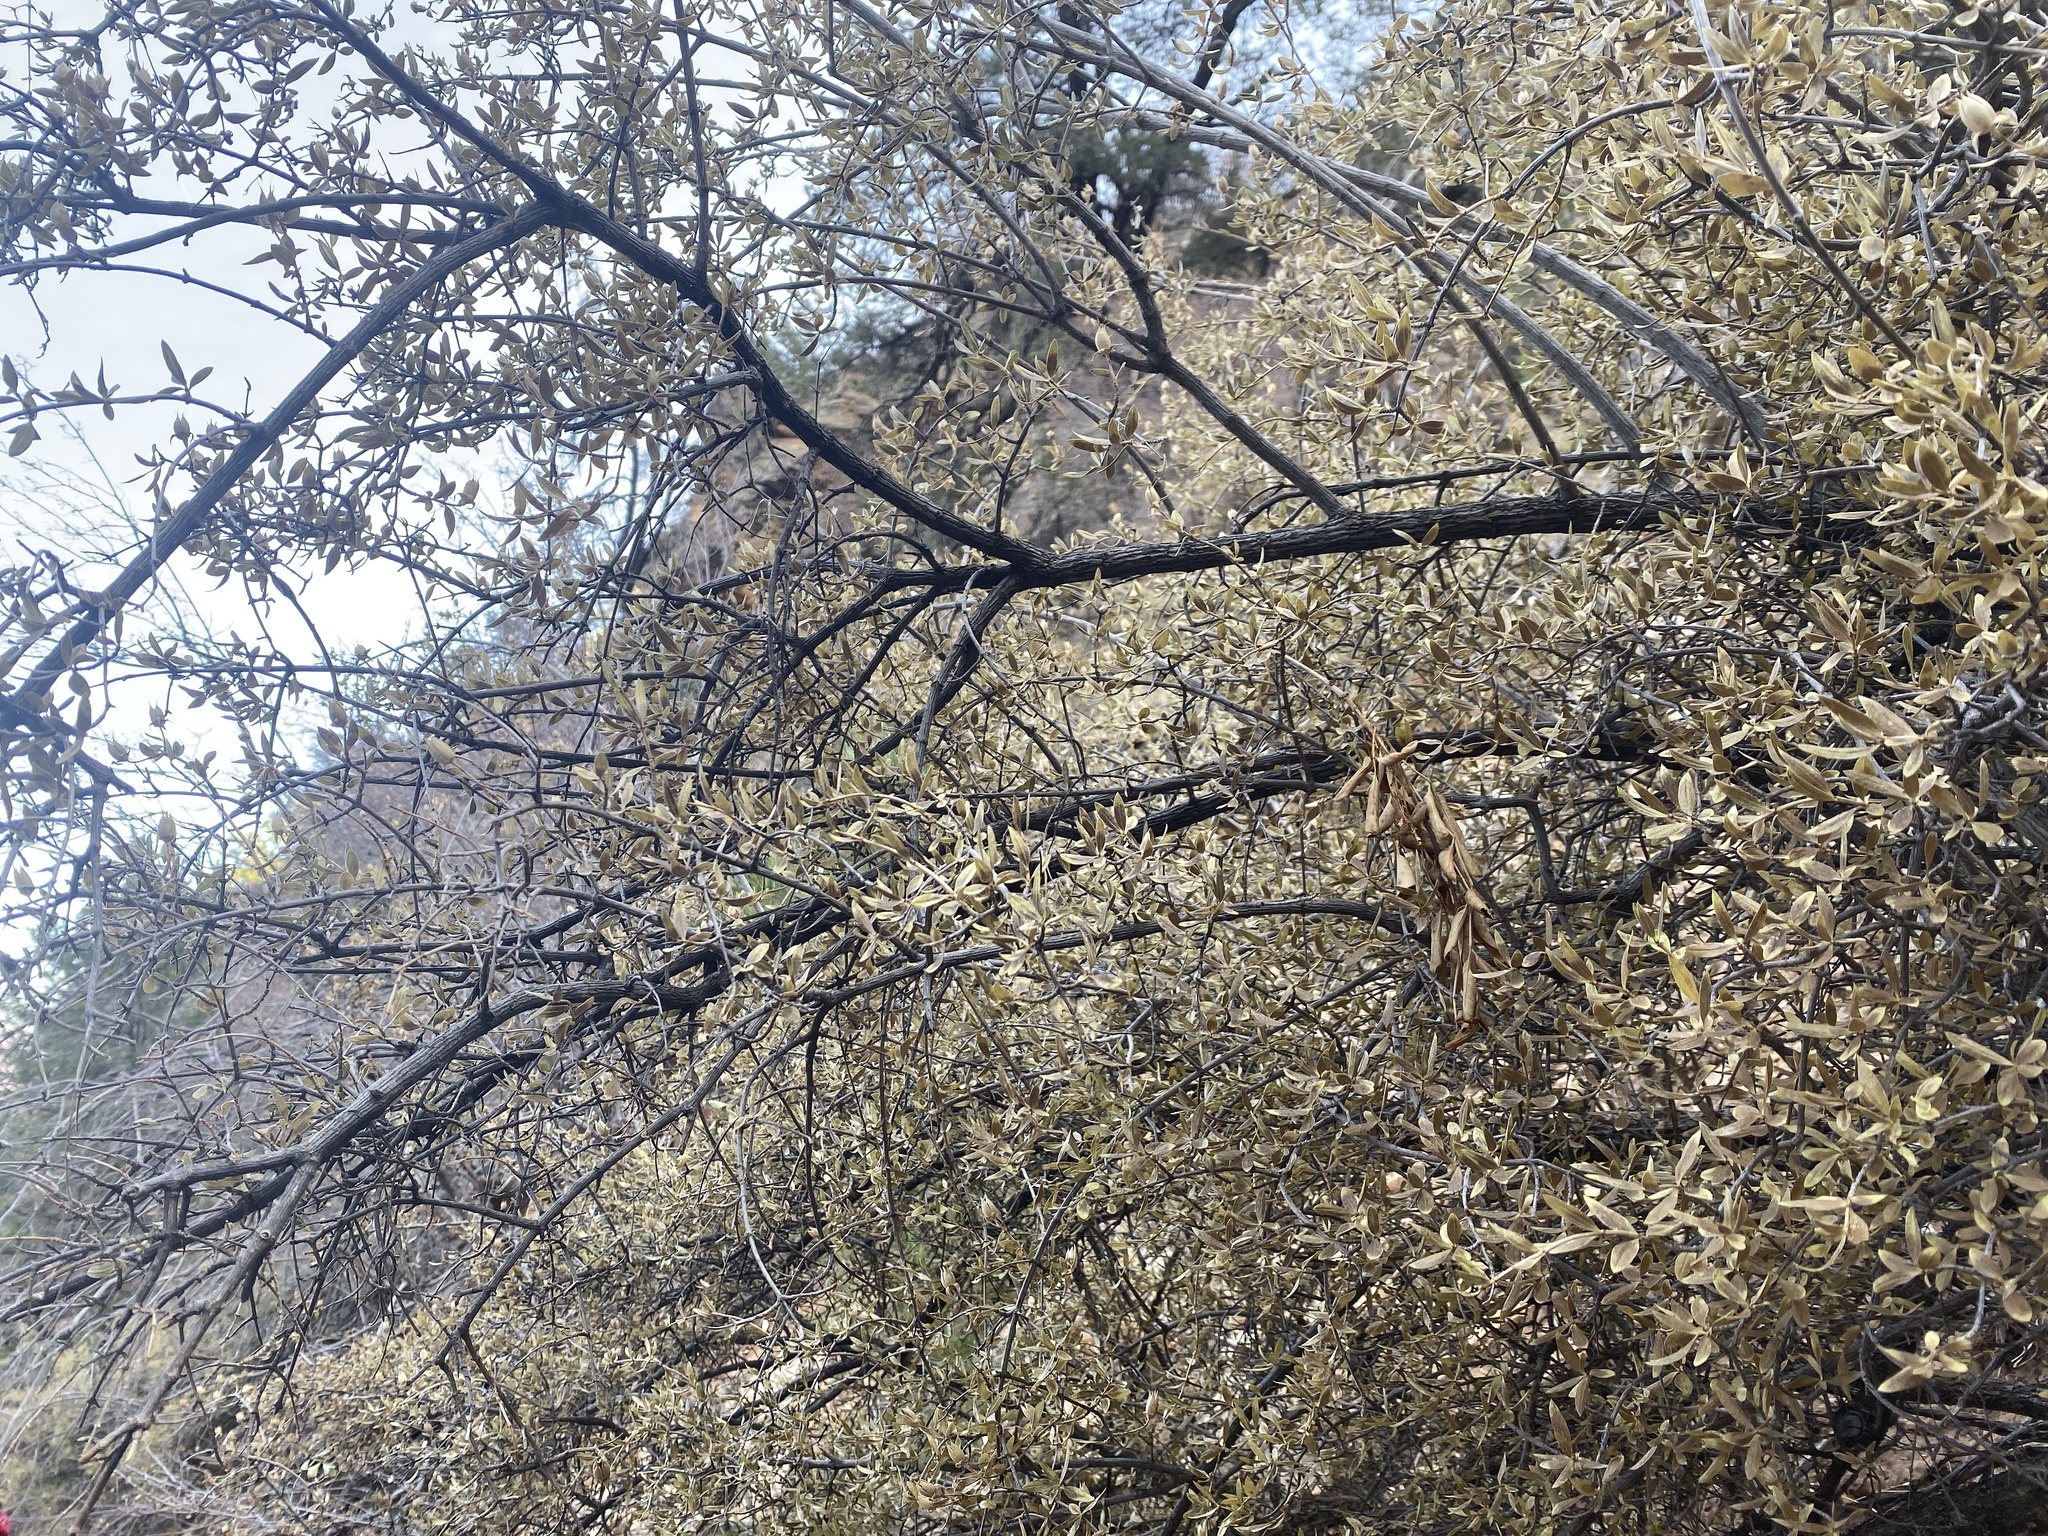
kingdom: Plantae
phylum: Tracheophyta
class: Magnoliopsida
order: Rosales
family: Rosaceae
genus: Cercocarpus
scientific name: Cercocarpus ledifolius
